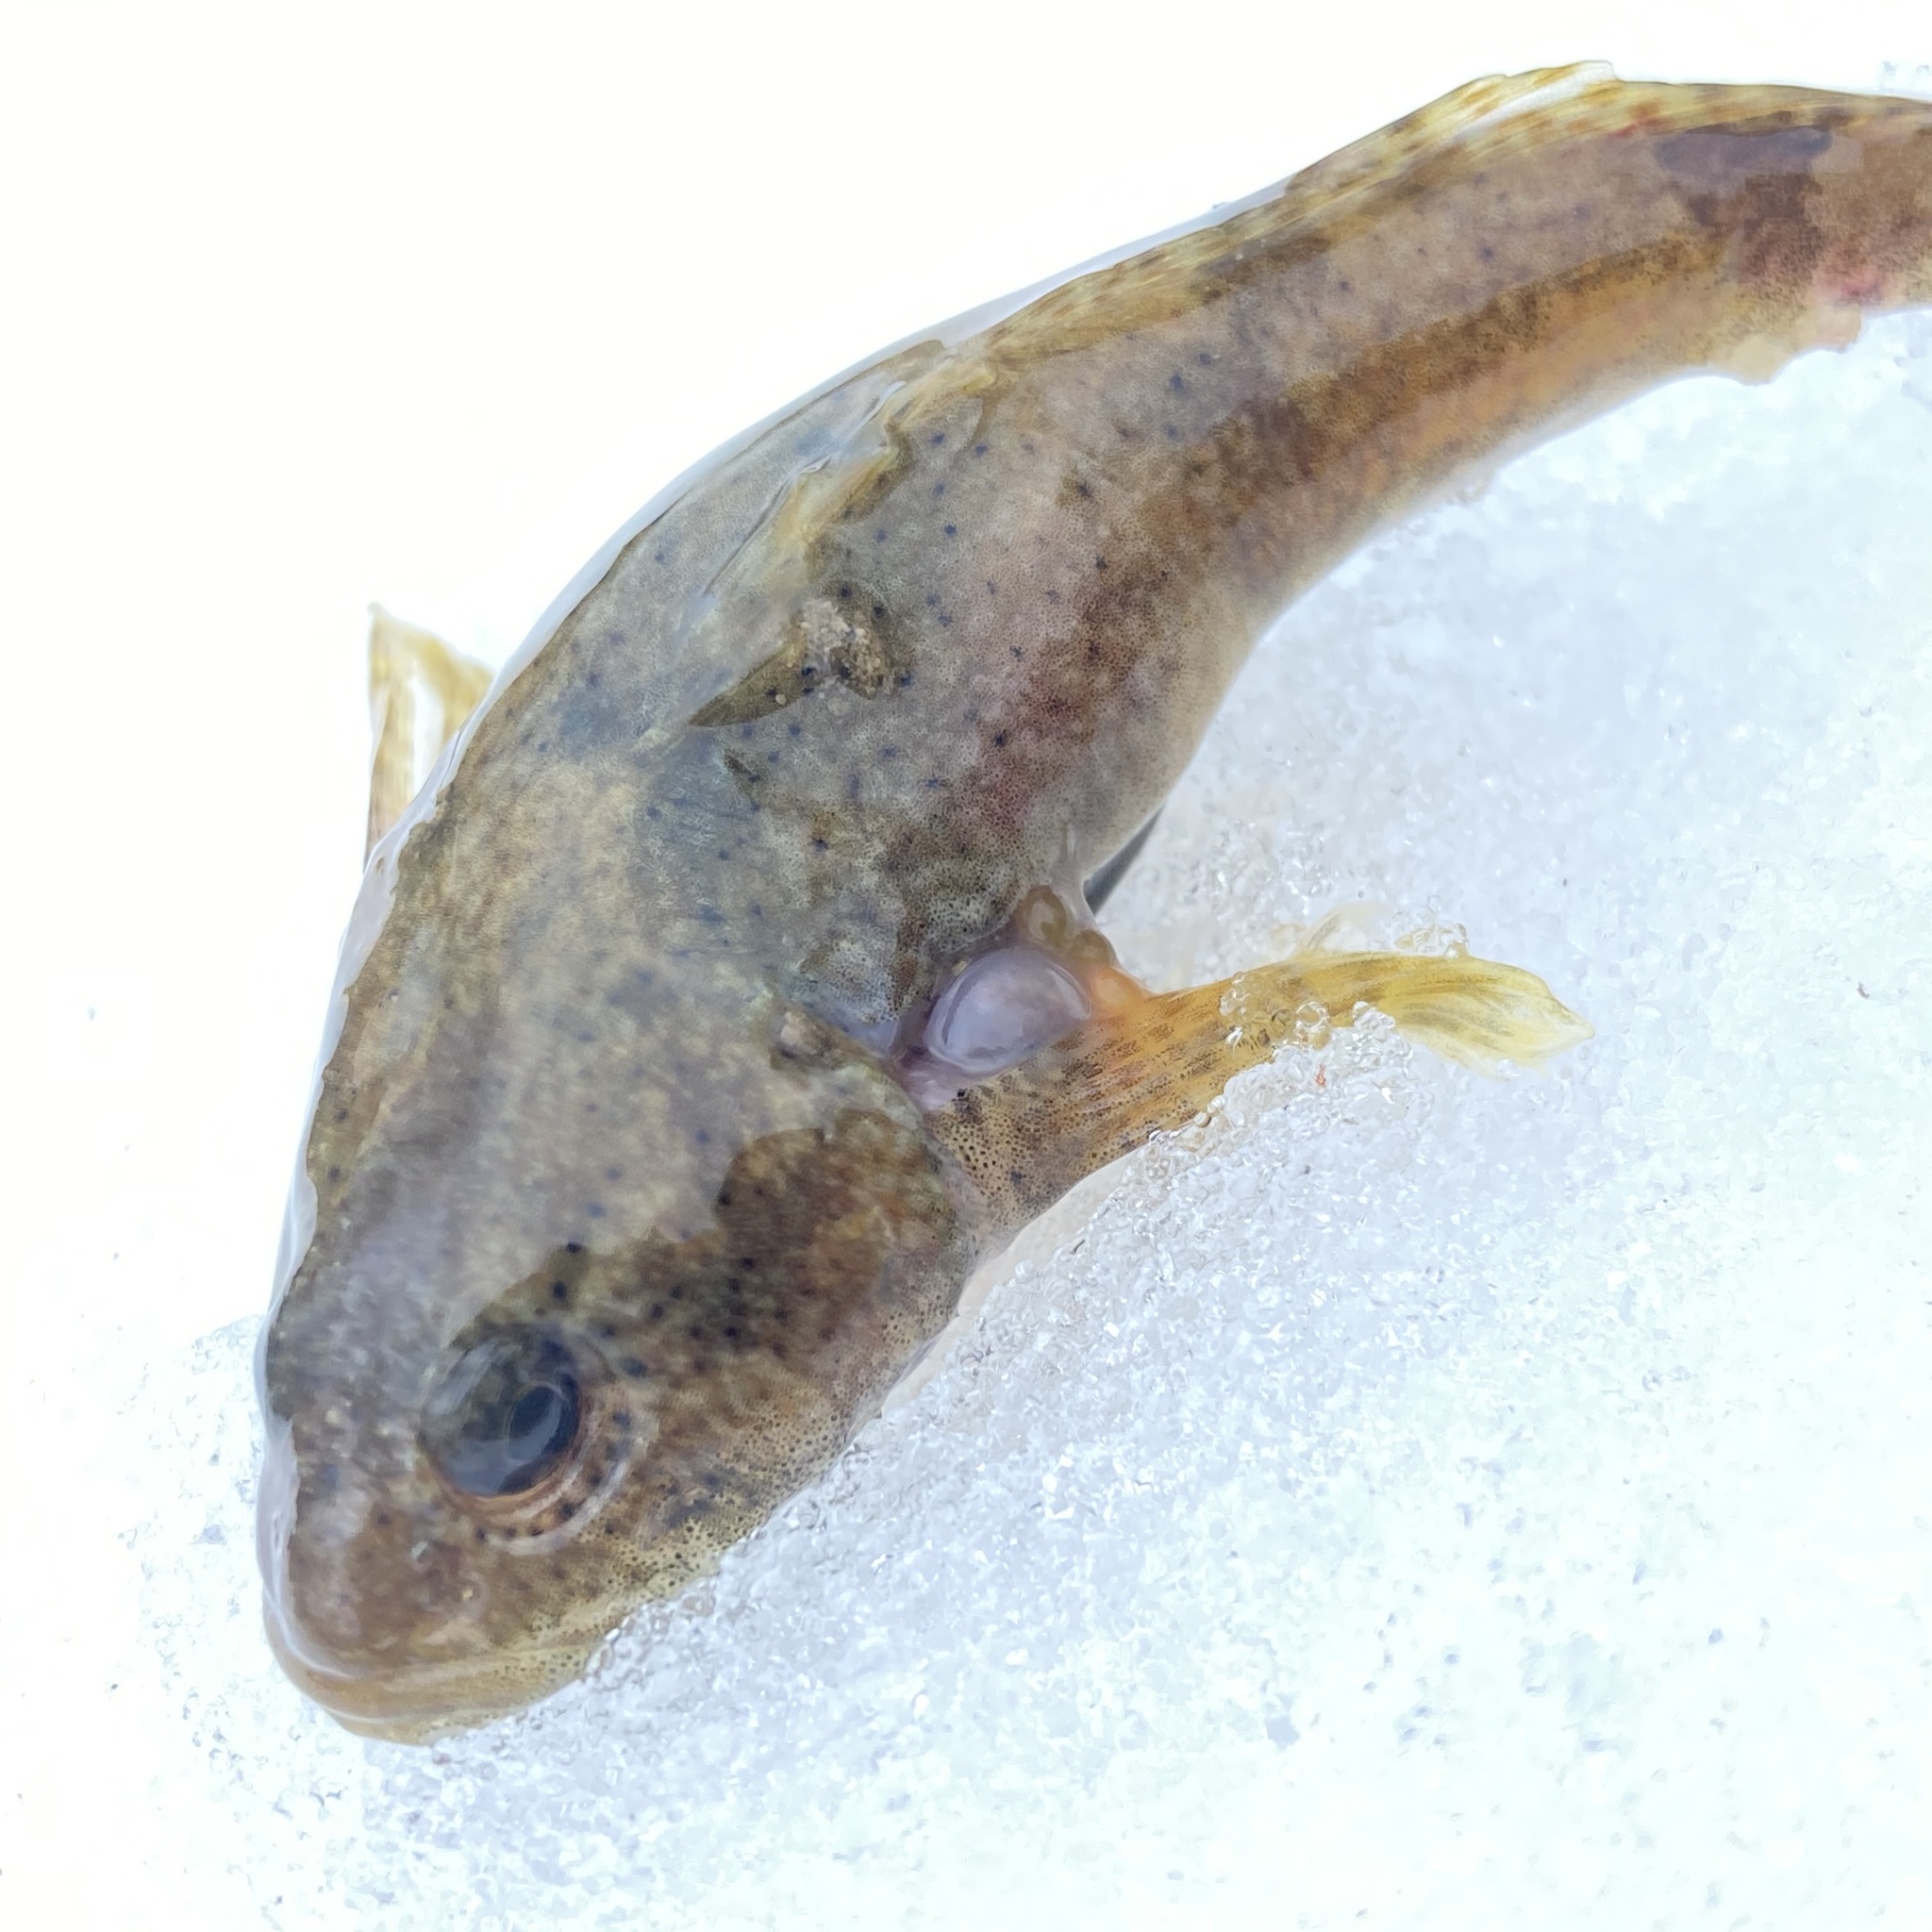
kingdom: Animalia
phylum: Chordata
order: Scorpaeniformes
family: Cottidae
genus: Cottus
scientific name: Cottus bairdii
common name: Mottled sculpin
